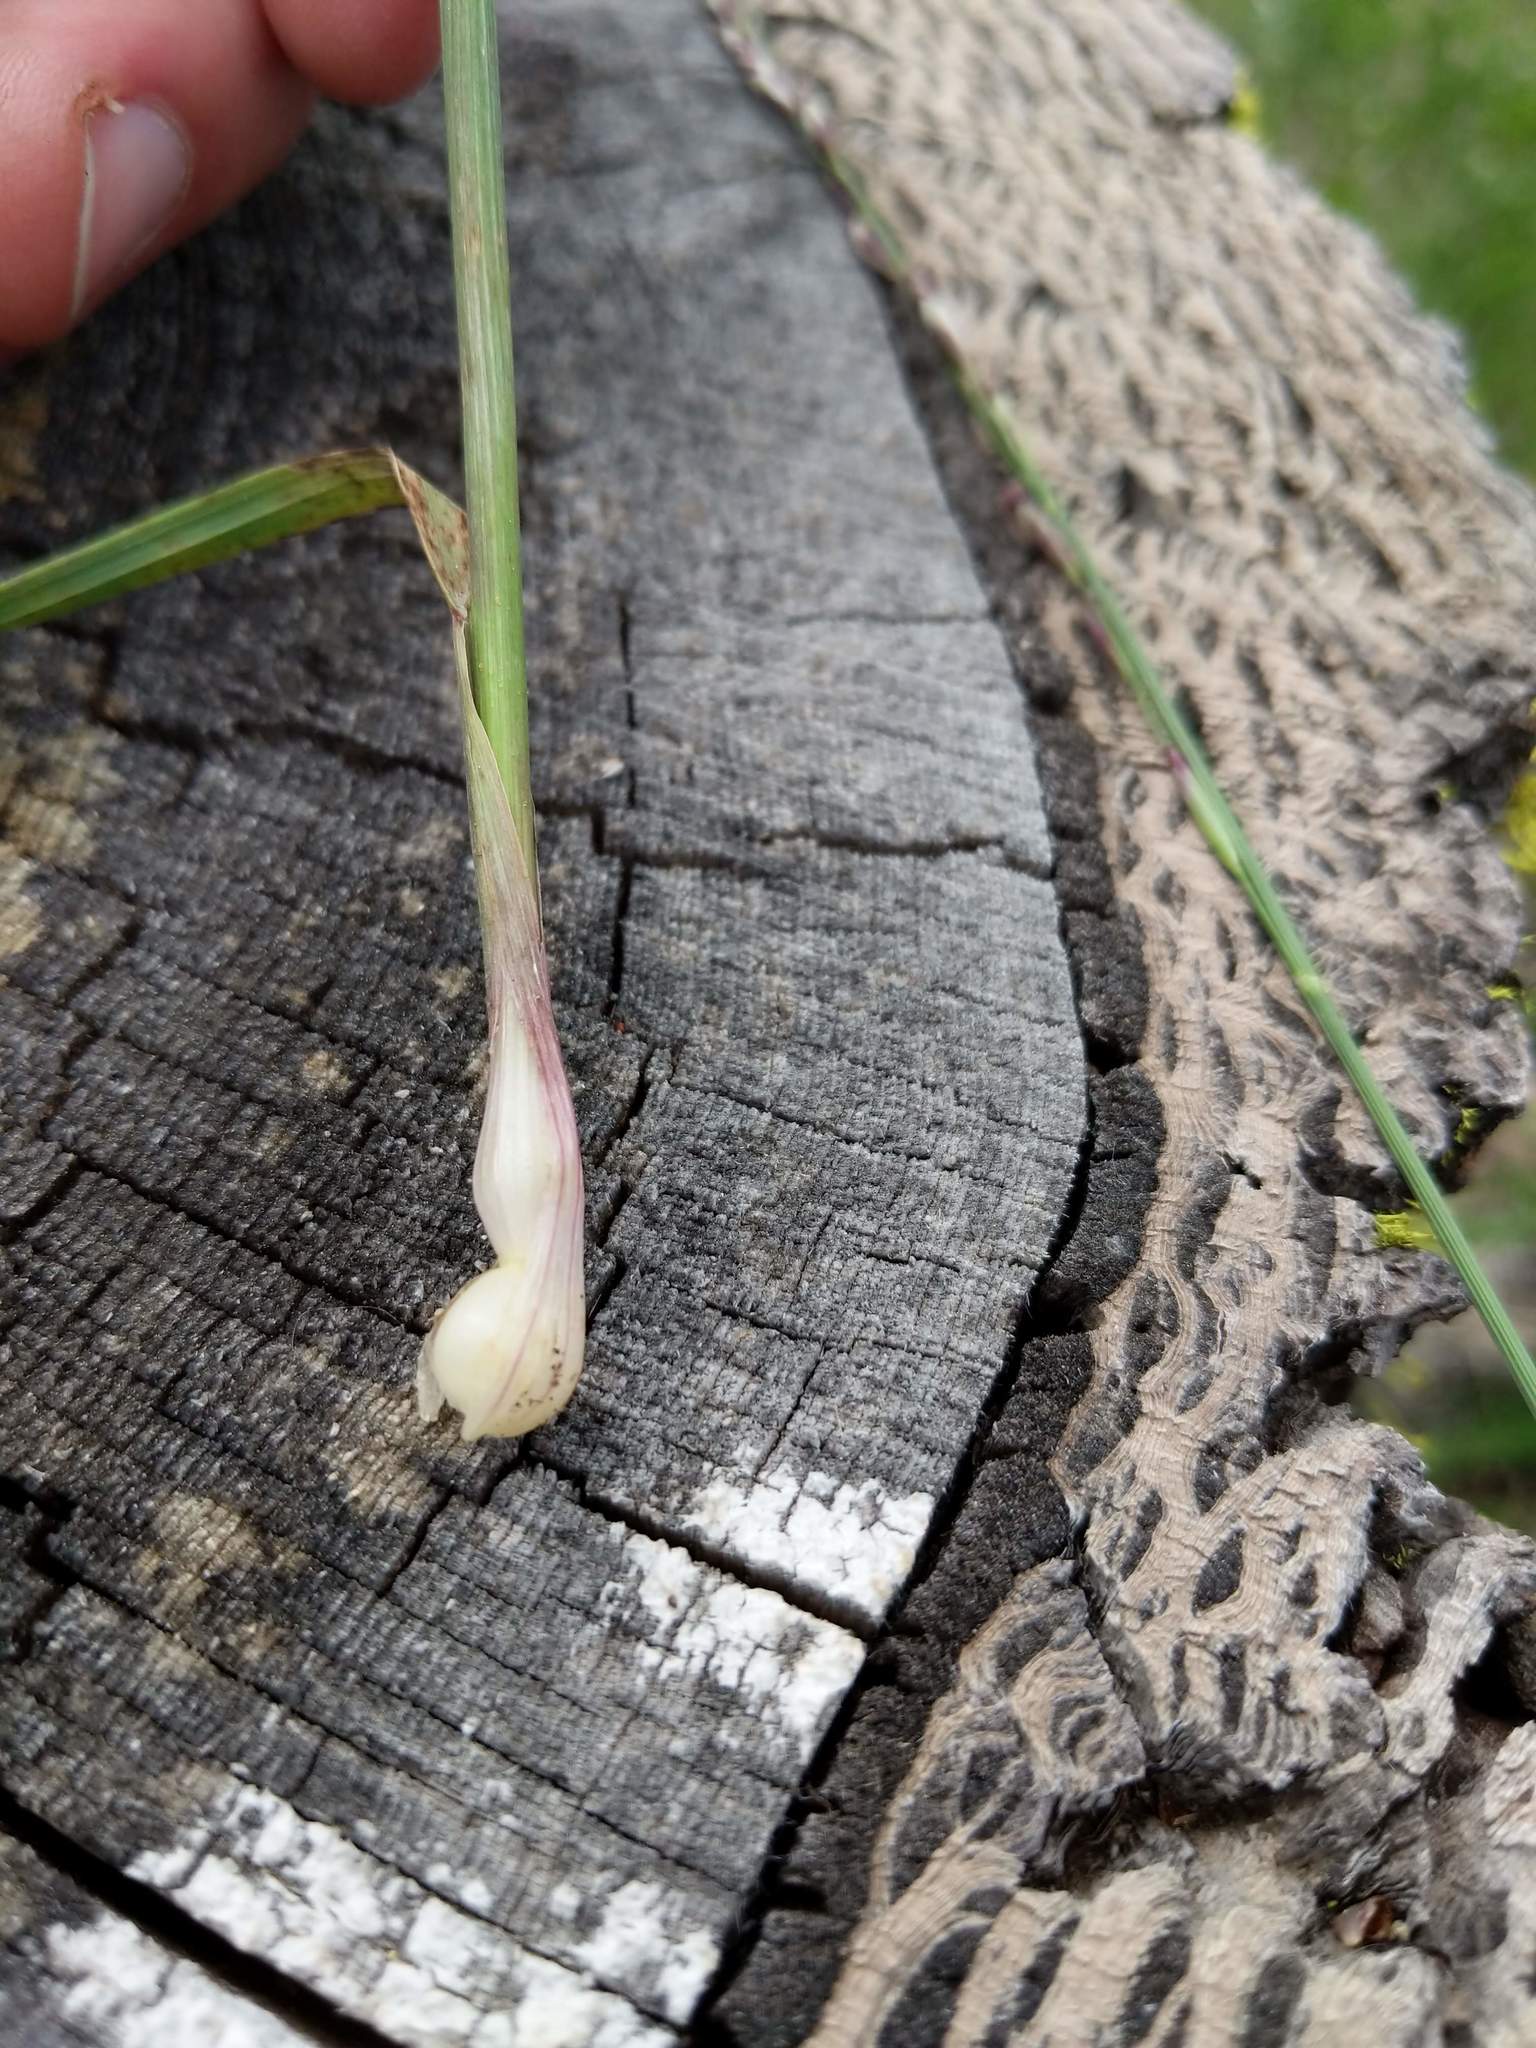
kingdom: Plantae
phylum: Tracheophyta
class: Liliopsida
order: Poales
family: Poaceae
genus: Melica
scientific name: Melica bulbosa
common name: Bulbous oniongrass
